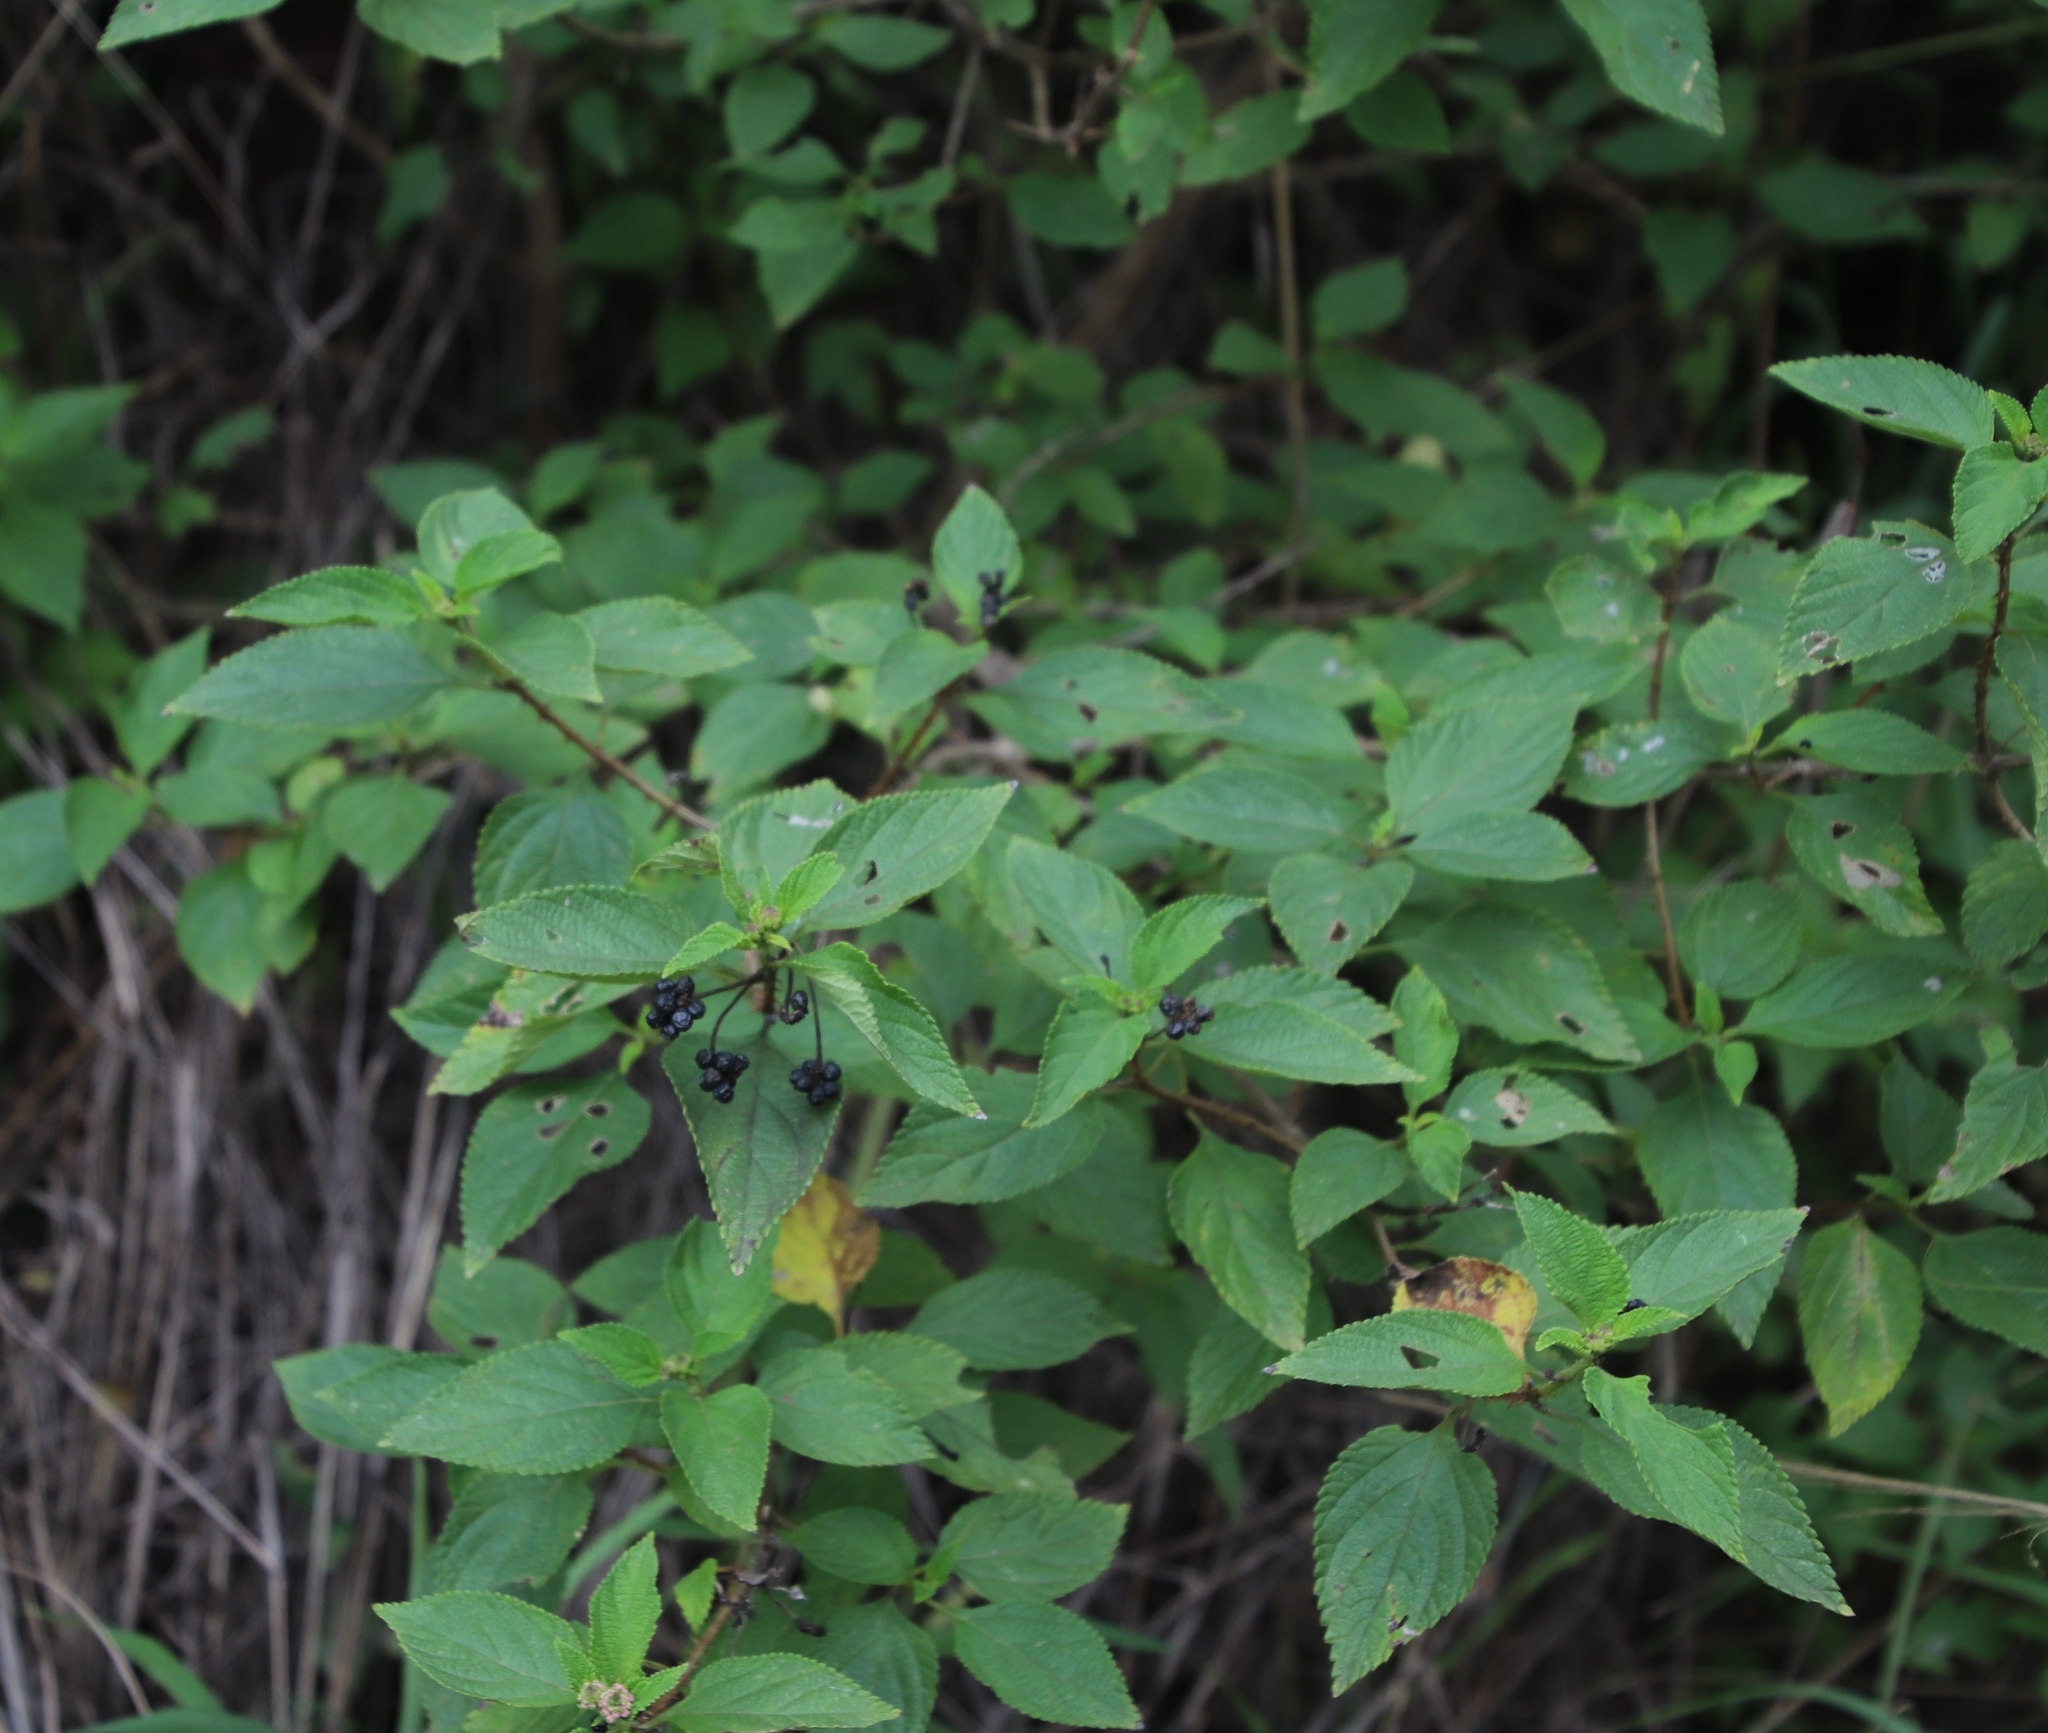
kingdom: Plantae
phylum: Tracheophyta
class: Magnoliopsida
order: Lamiales
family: Verbenaceae
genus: Lantana
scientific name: Lantana camara
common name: Lantana
